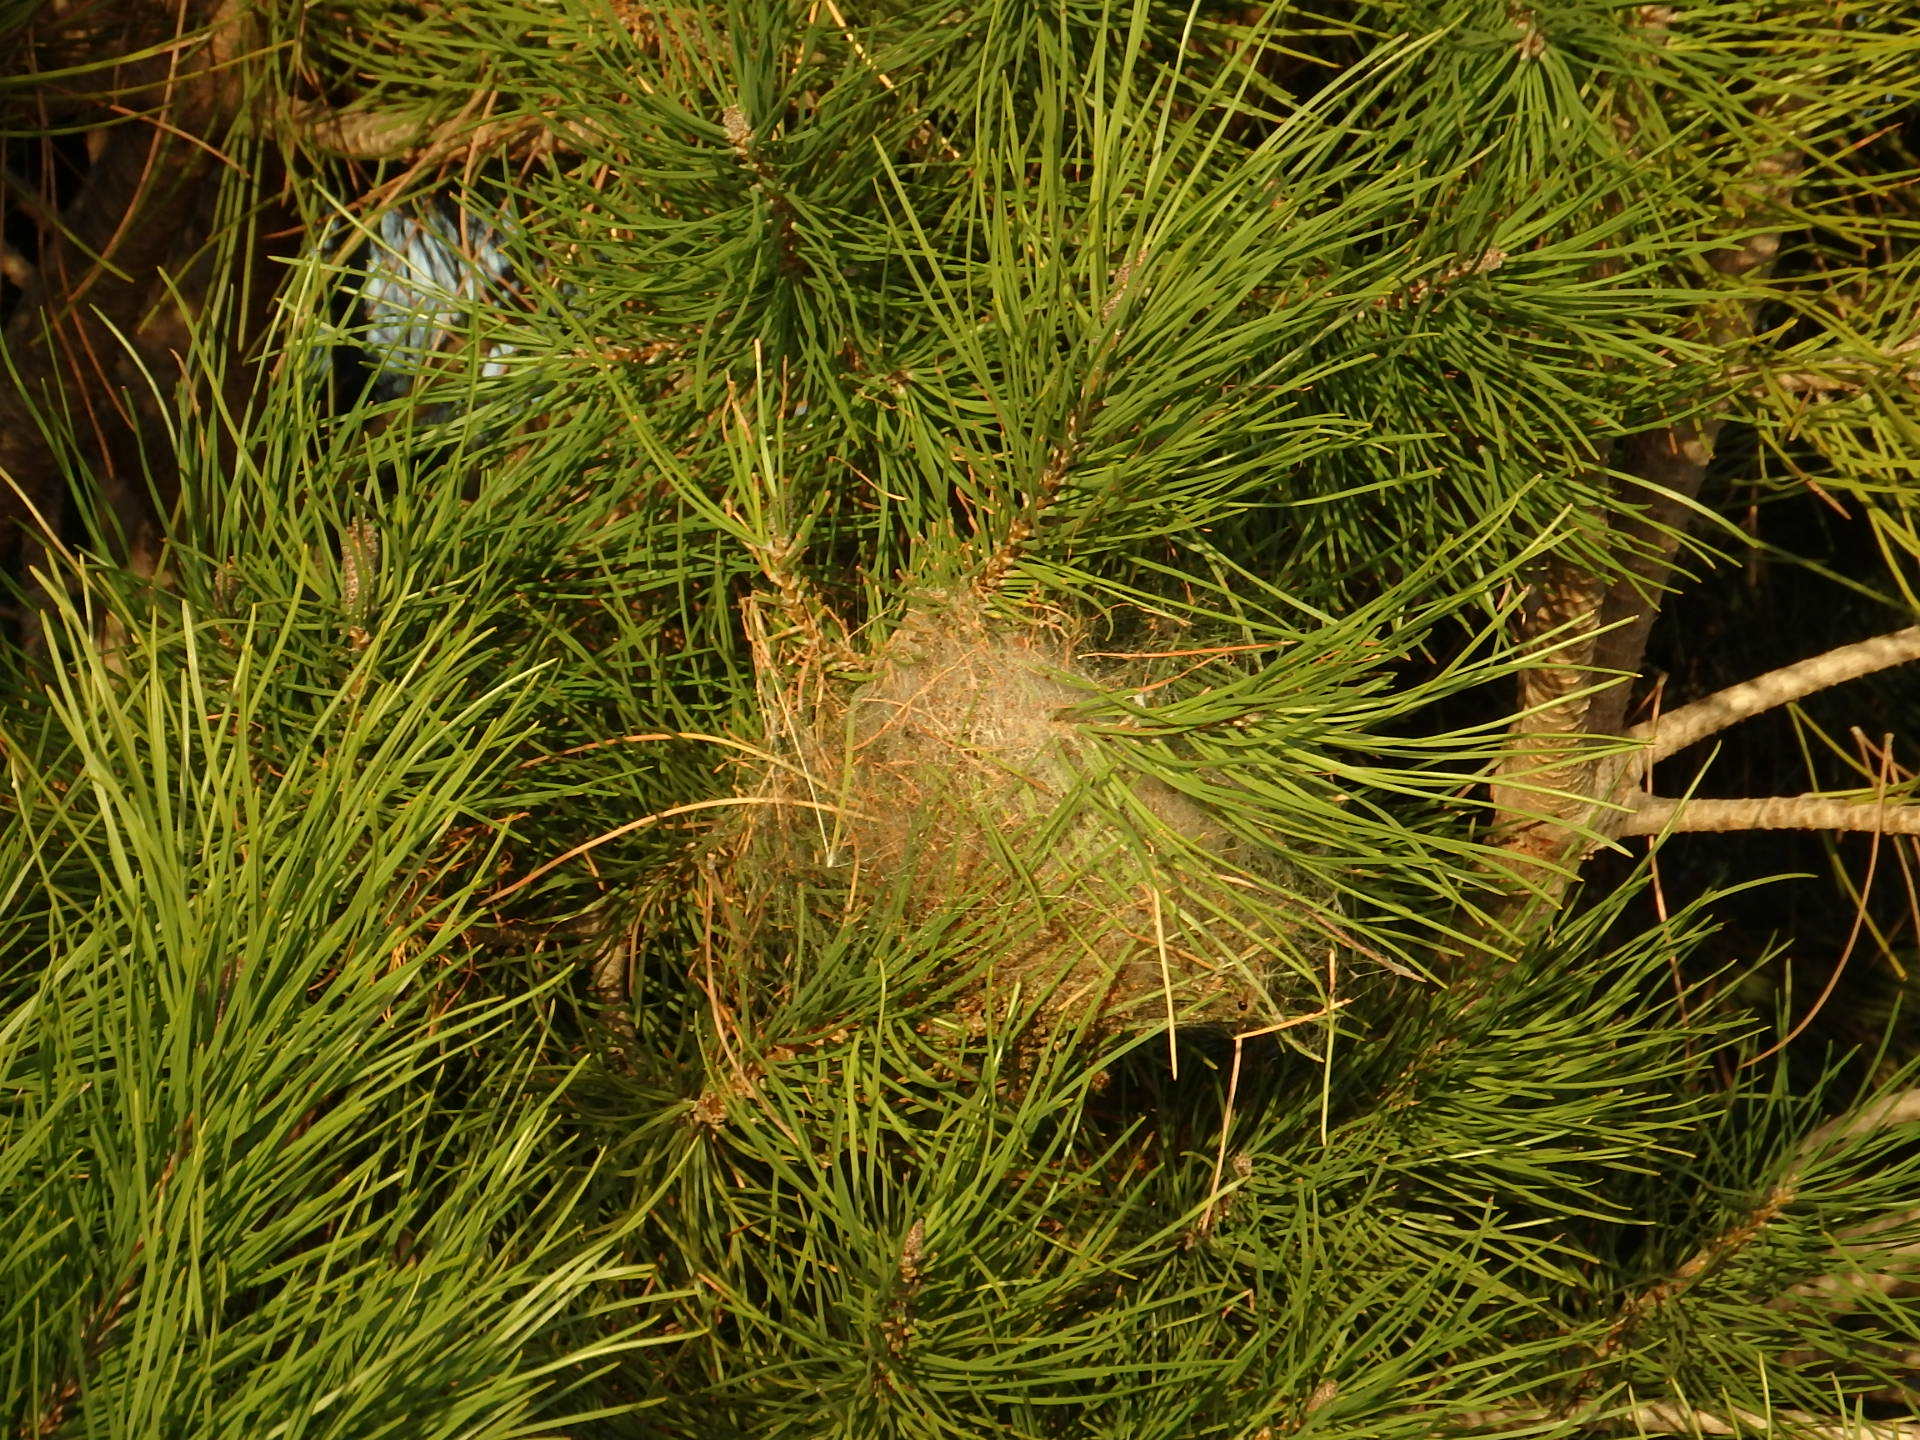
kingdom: Animalia
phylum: Arthropoda
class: Insecta
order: Lepidoptera
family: Notodontidae
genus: Thaumetopoea
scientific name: Thaumetopoea pityocampa
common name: Pine processionary
